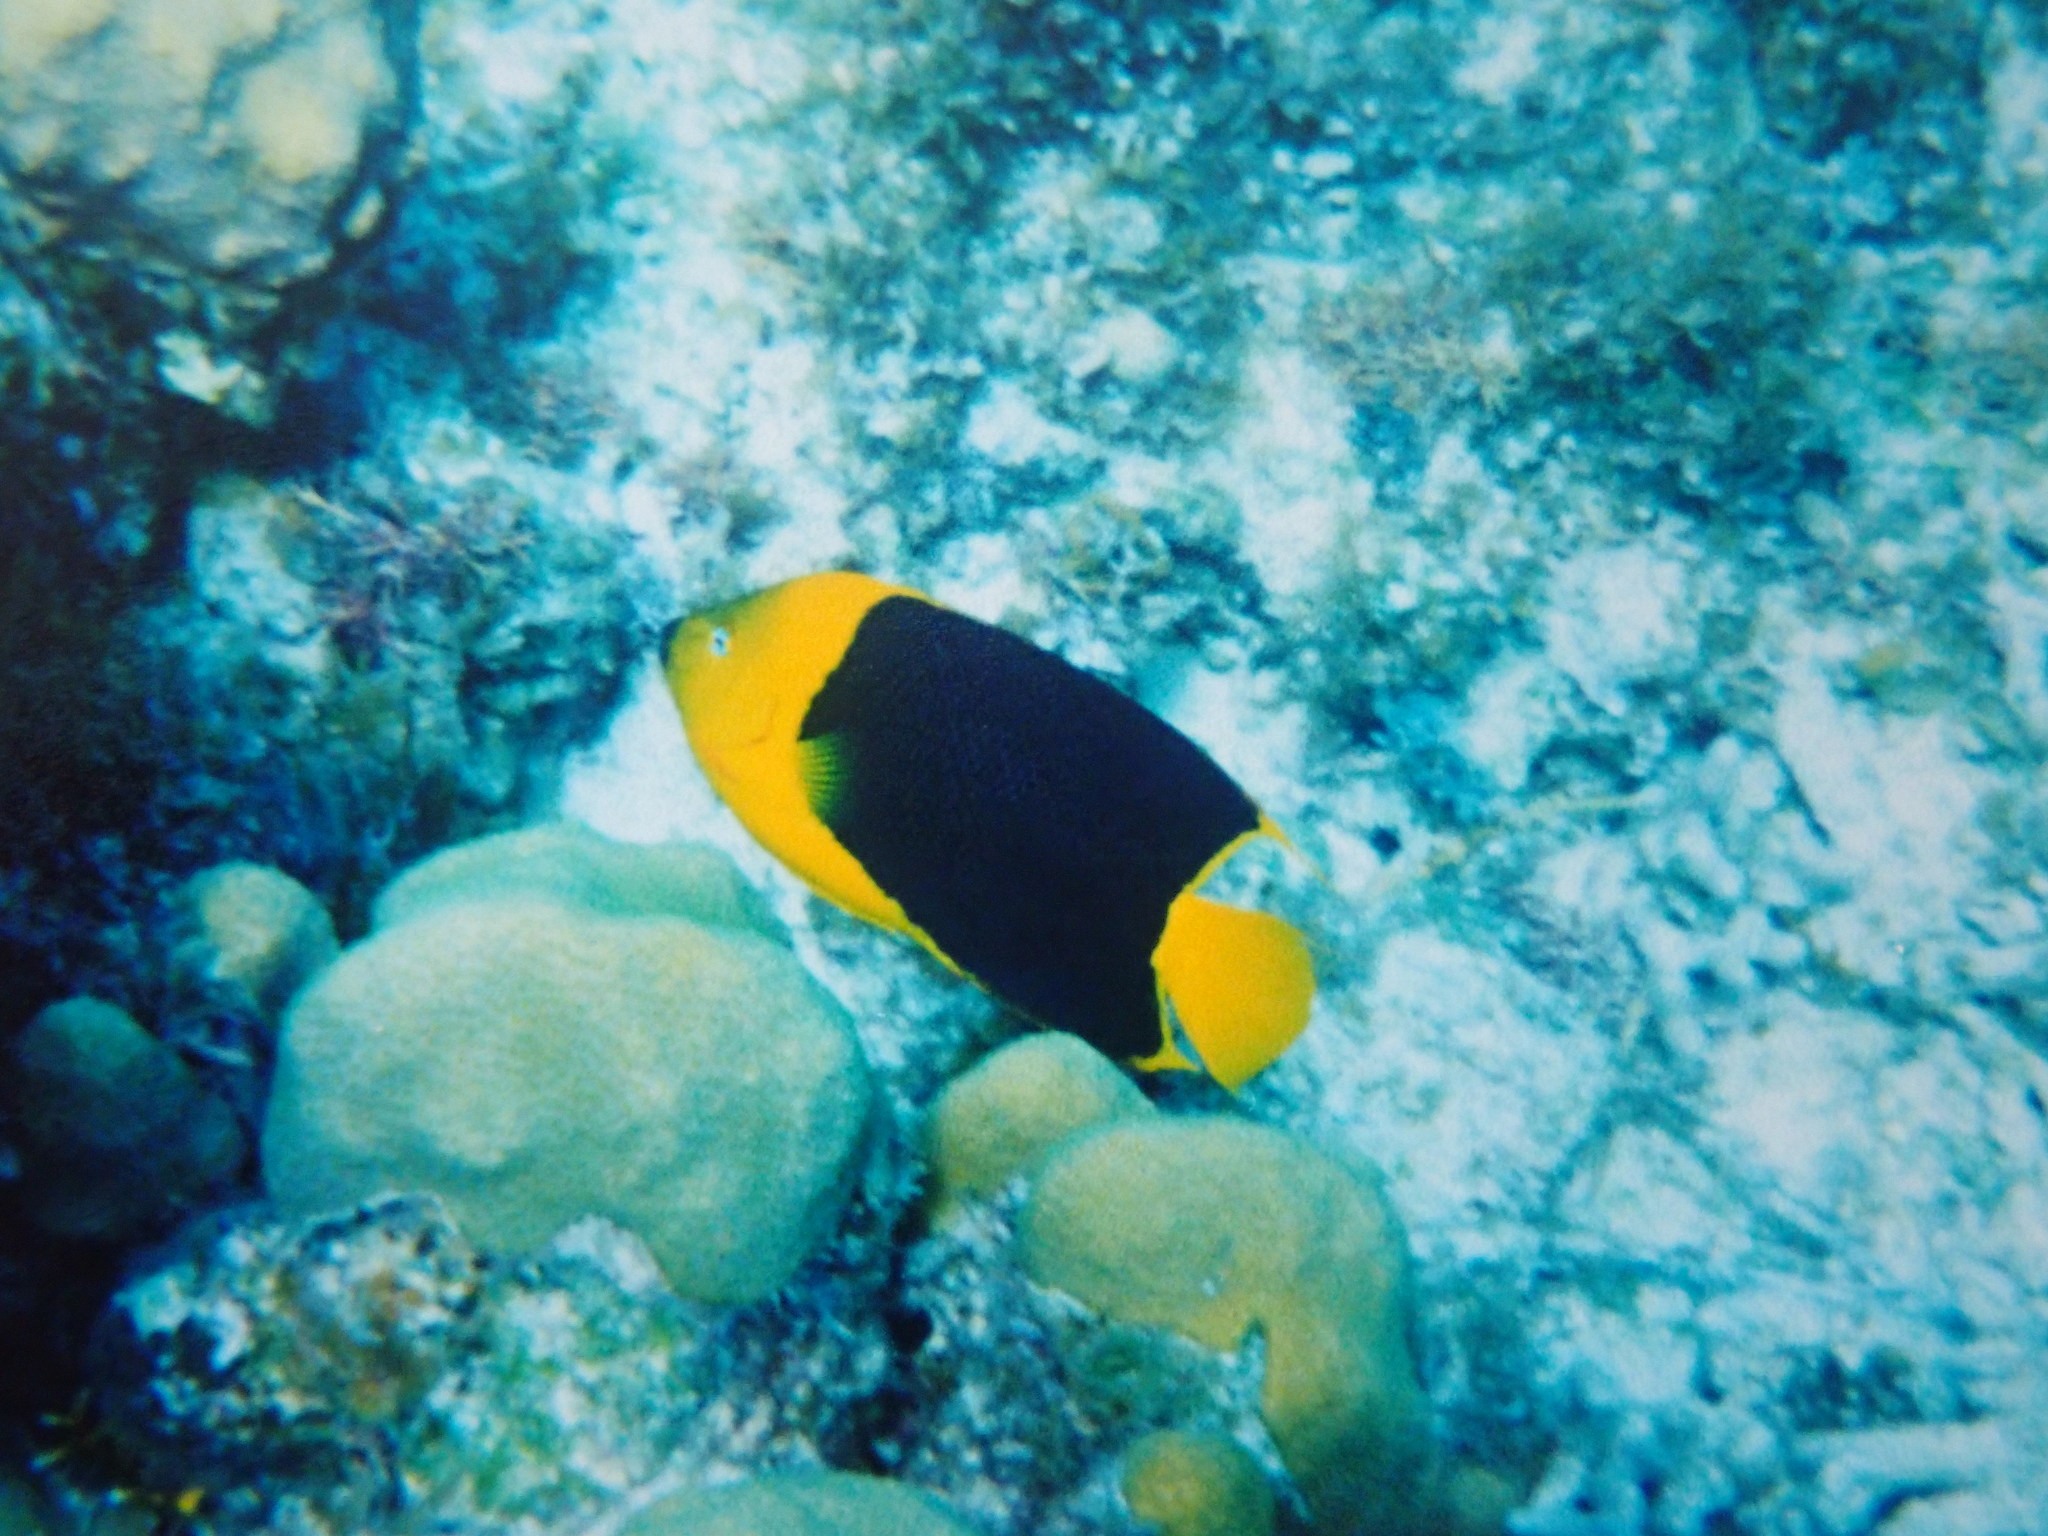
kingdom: Animalia
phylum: Chordata
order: Perciformes
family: Pomacanthidae
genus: Holacanthus
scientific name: Holacanthus tricolor
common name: Rock beauty
